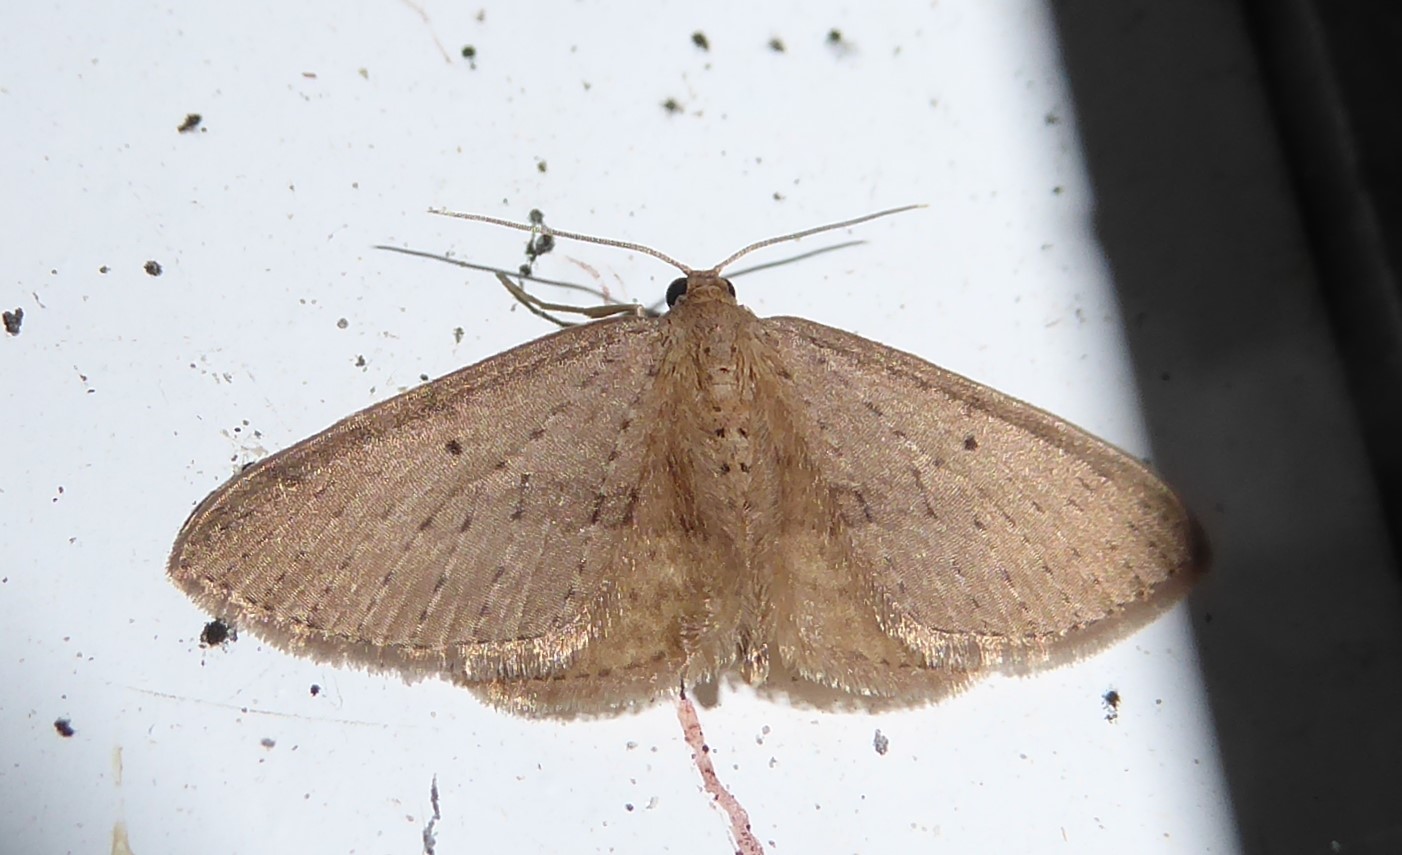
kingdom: Animalia
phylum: Arthropoda
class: Insecta
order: Lepidoptera
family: Geometridae
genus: Poecilasthena
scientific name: Poecilasthena schistaria
